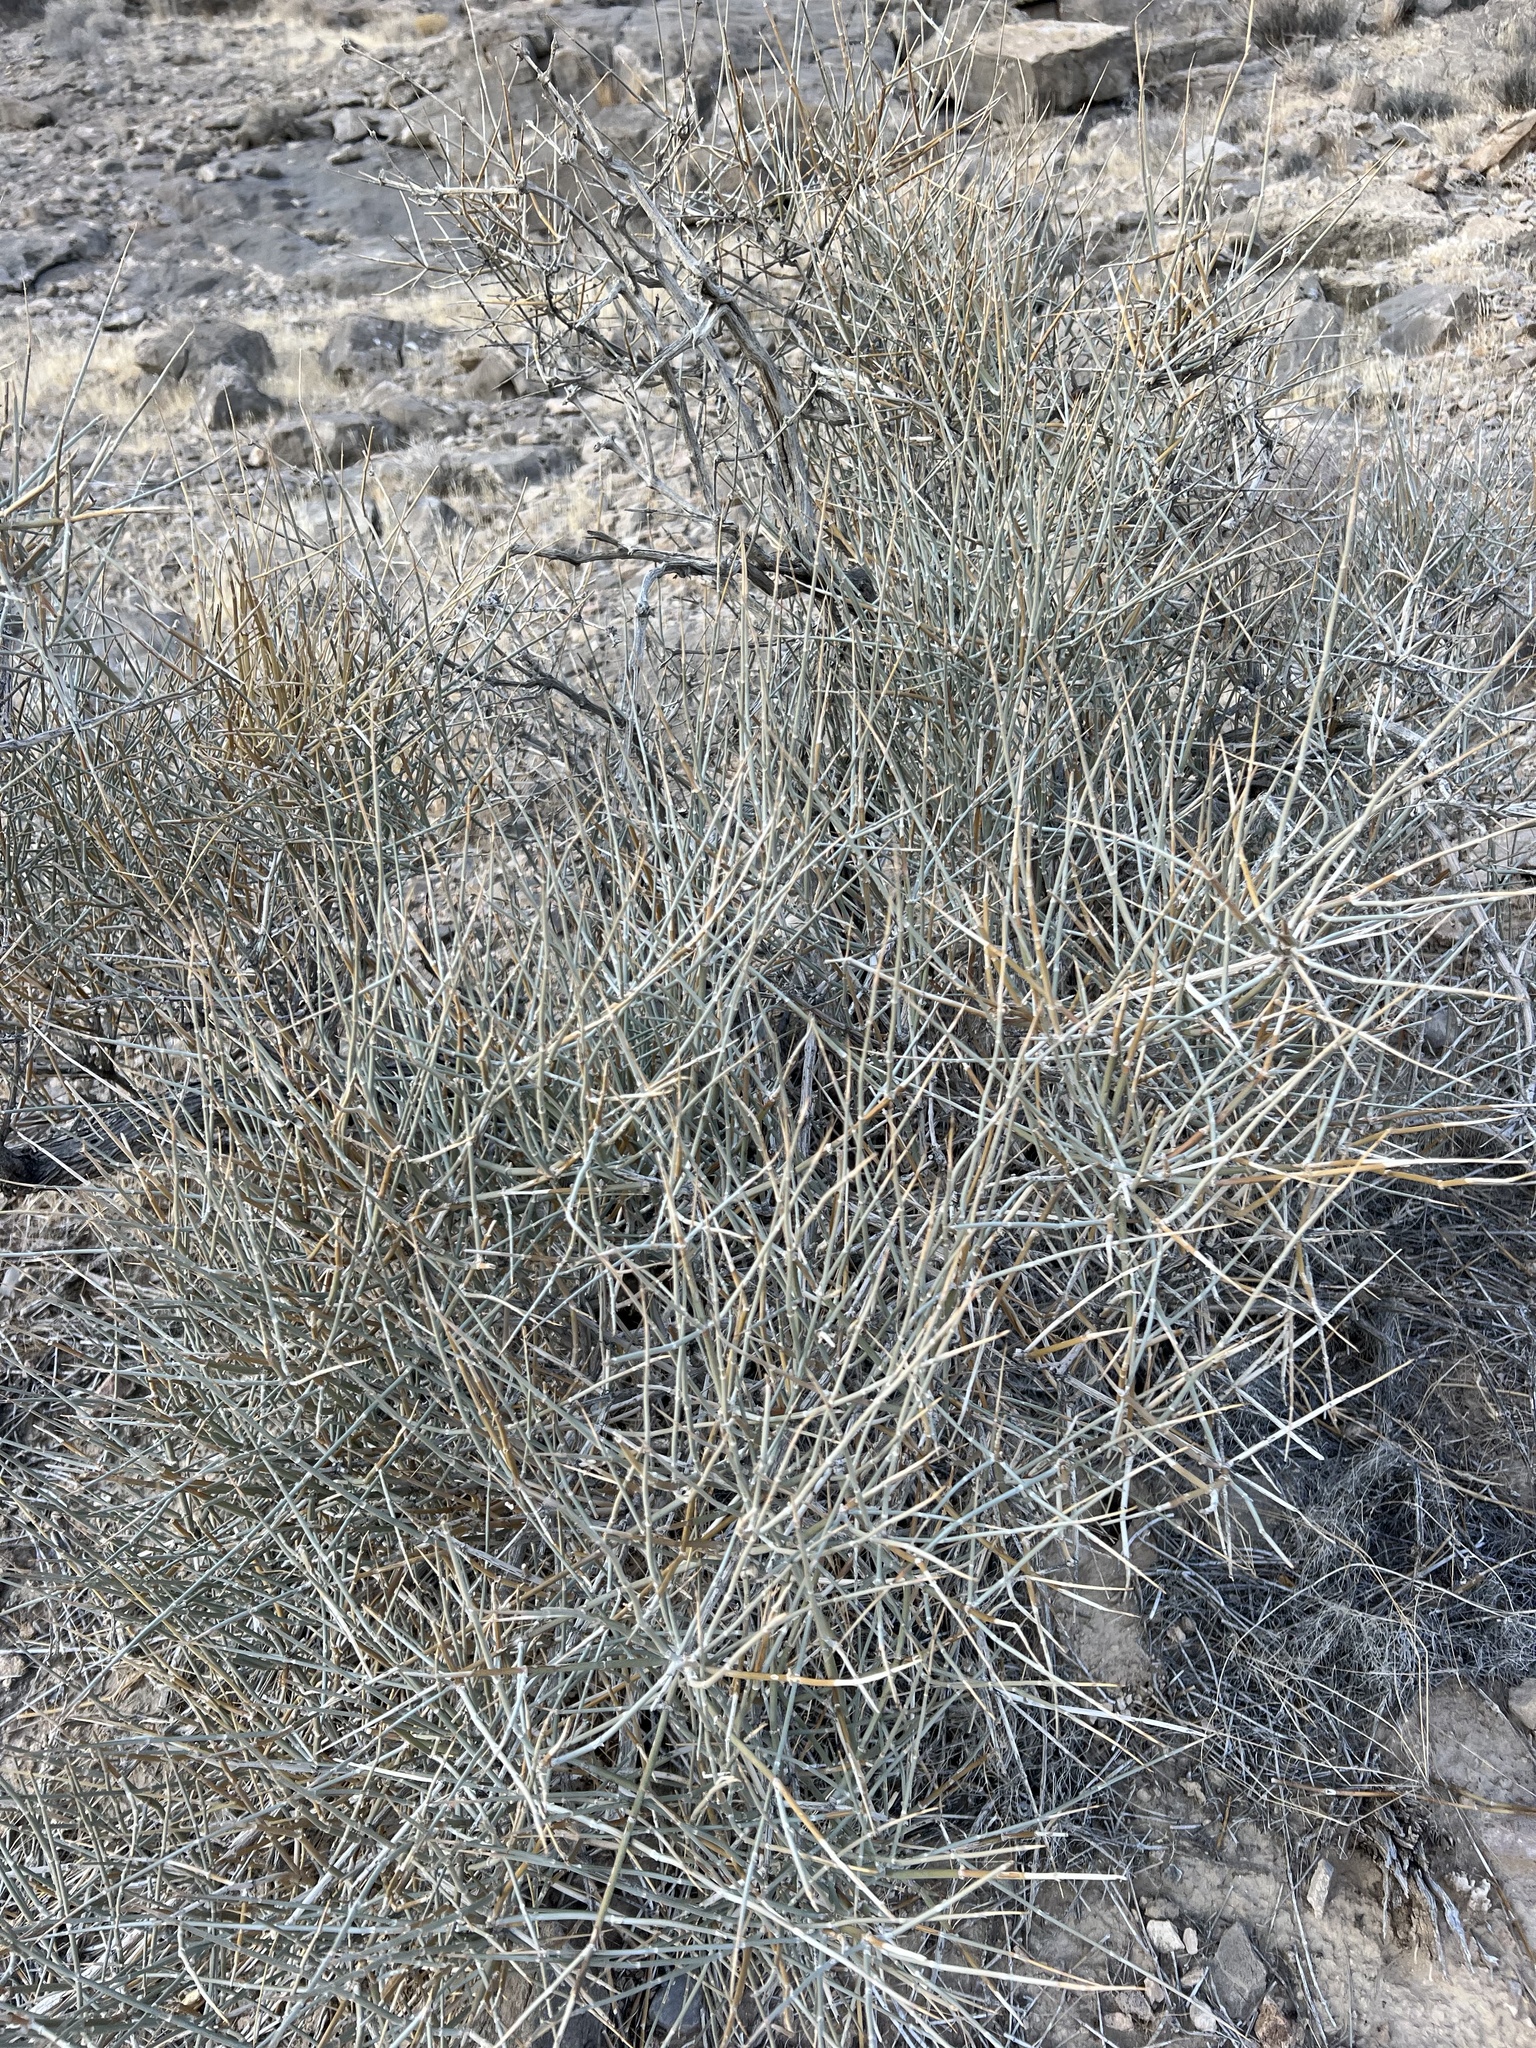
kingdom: Plantae
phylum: Tracheophyta
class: Gnetopsida
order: Ephedrales
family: Ephedraceae
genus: Ephedra
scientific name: Ephedra nevadensis
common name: Gray ephedra
